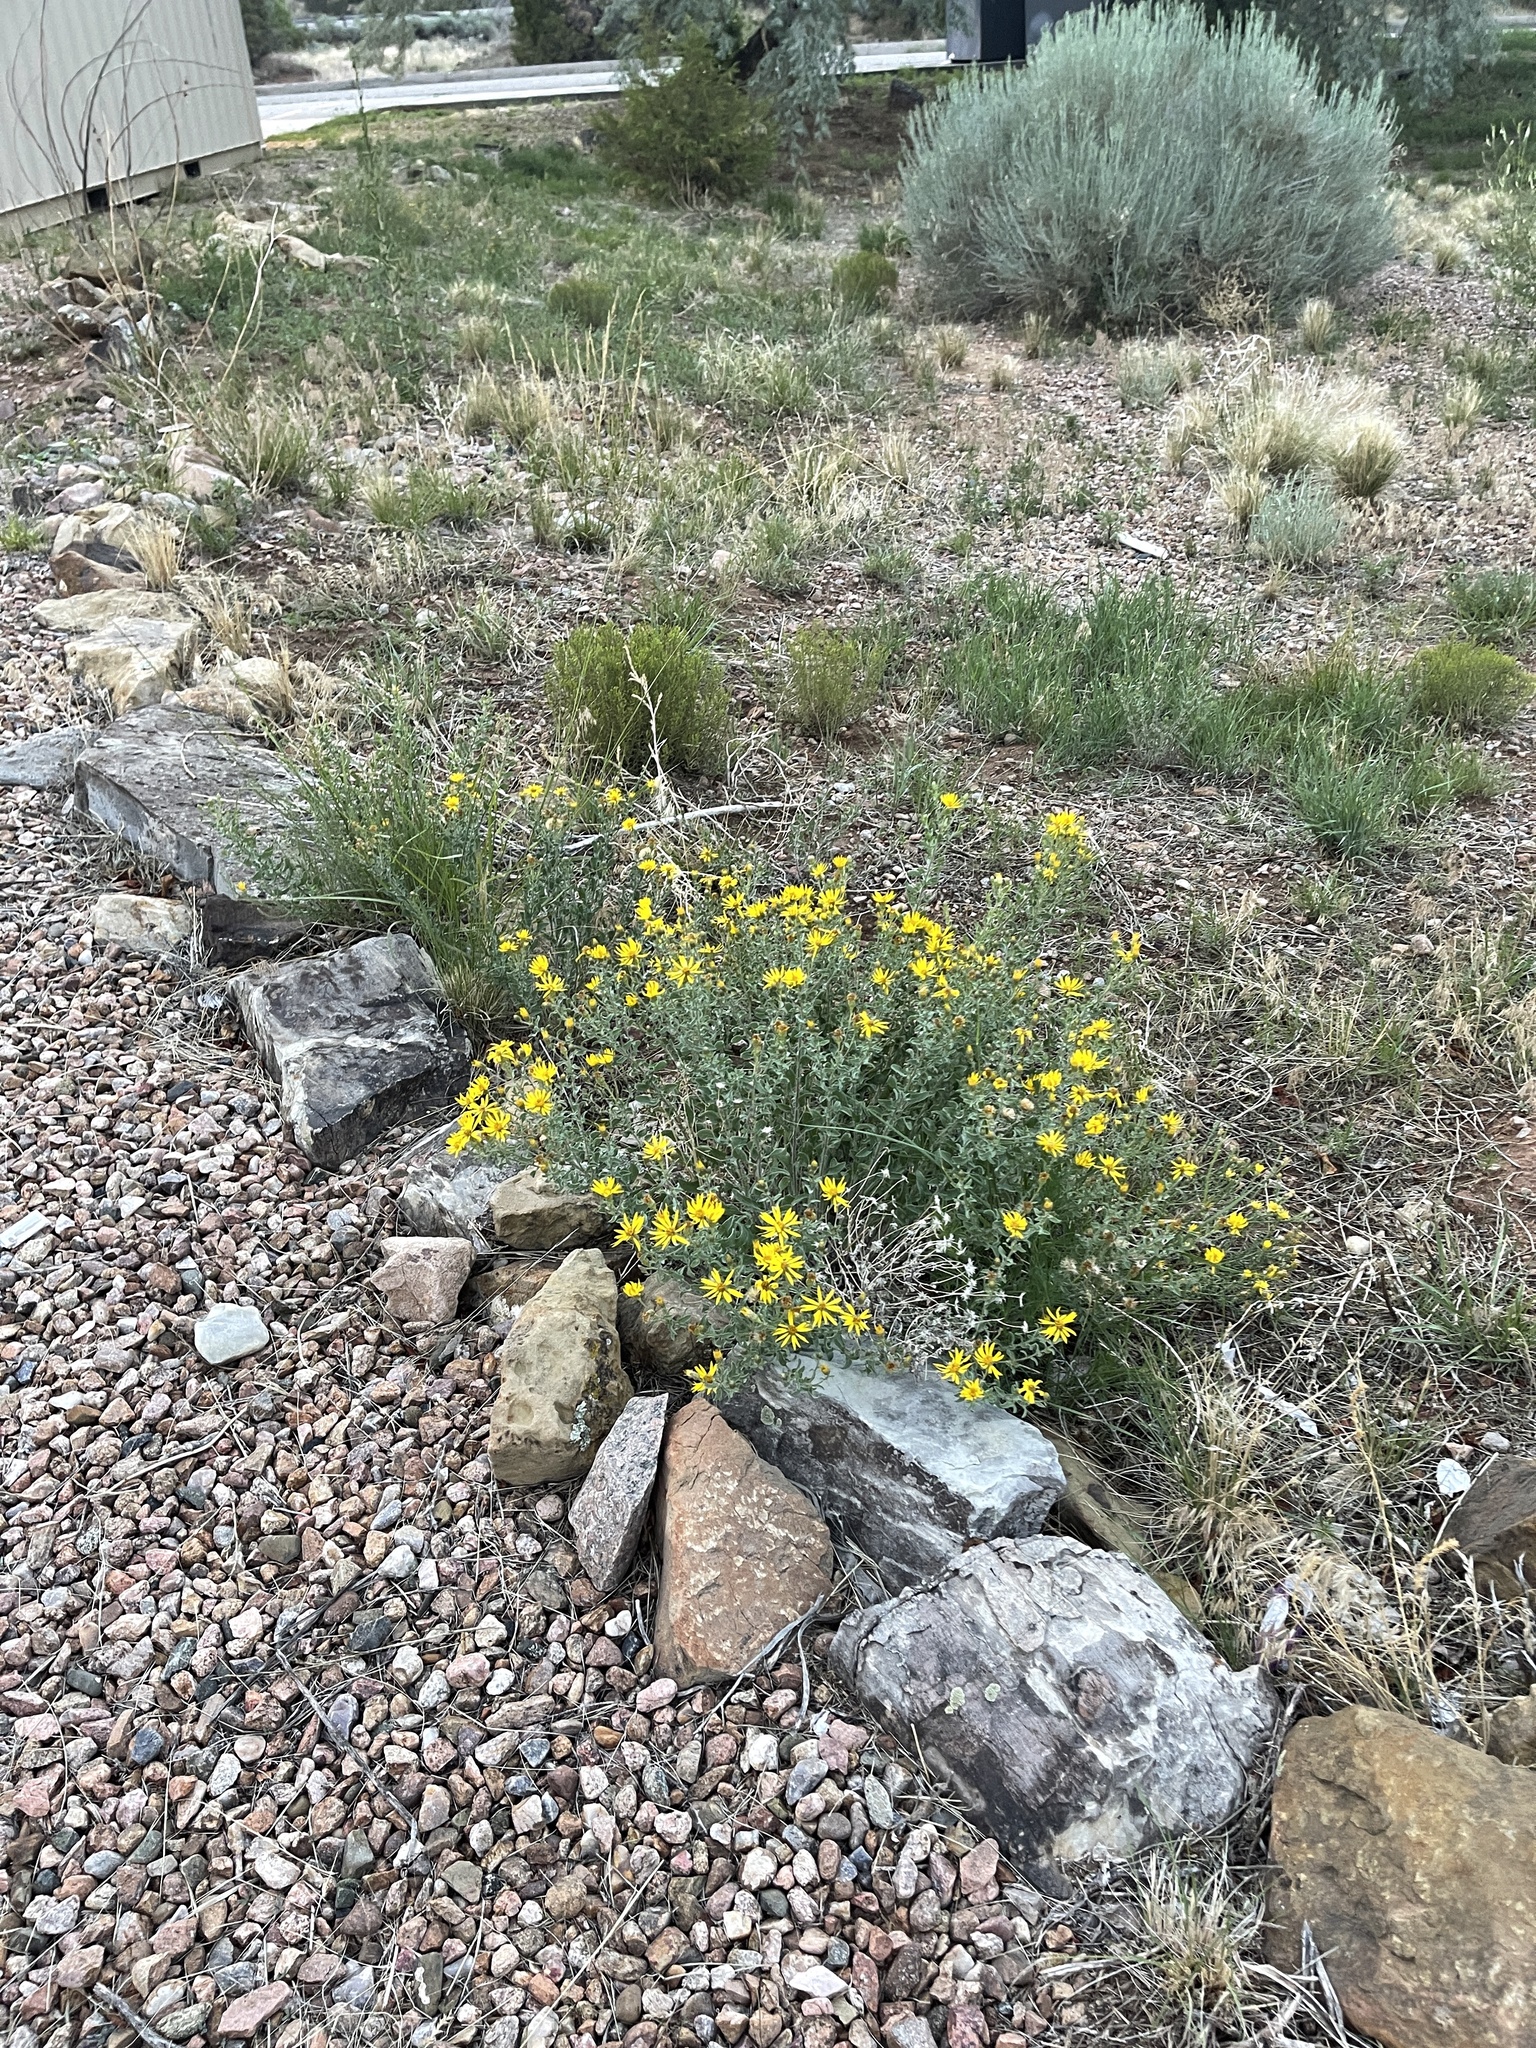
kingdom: Plantae
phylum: Tracheophyta
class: Magnoliopsida
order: Asterales
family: Asteraceae
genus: Heterotheca
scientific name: Heterotheca hirsutissima
